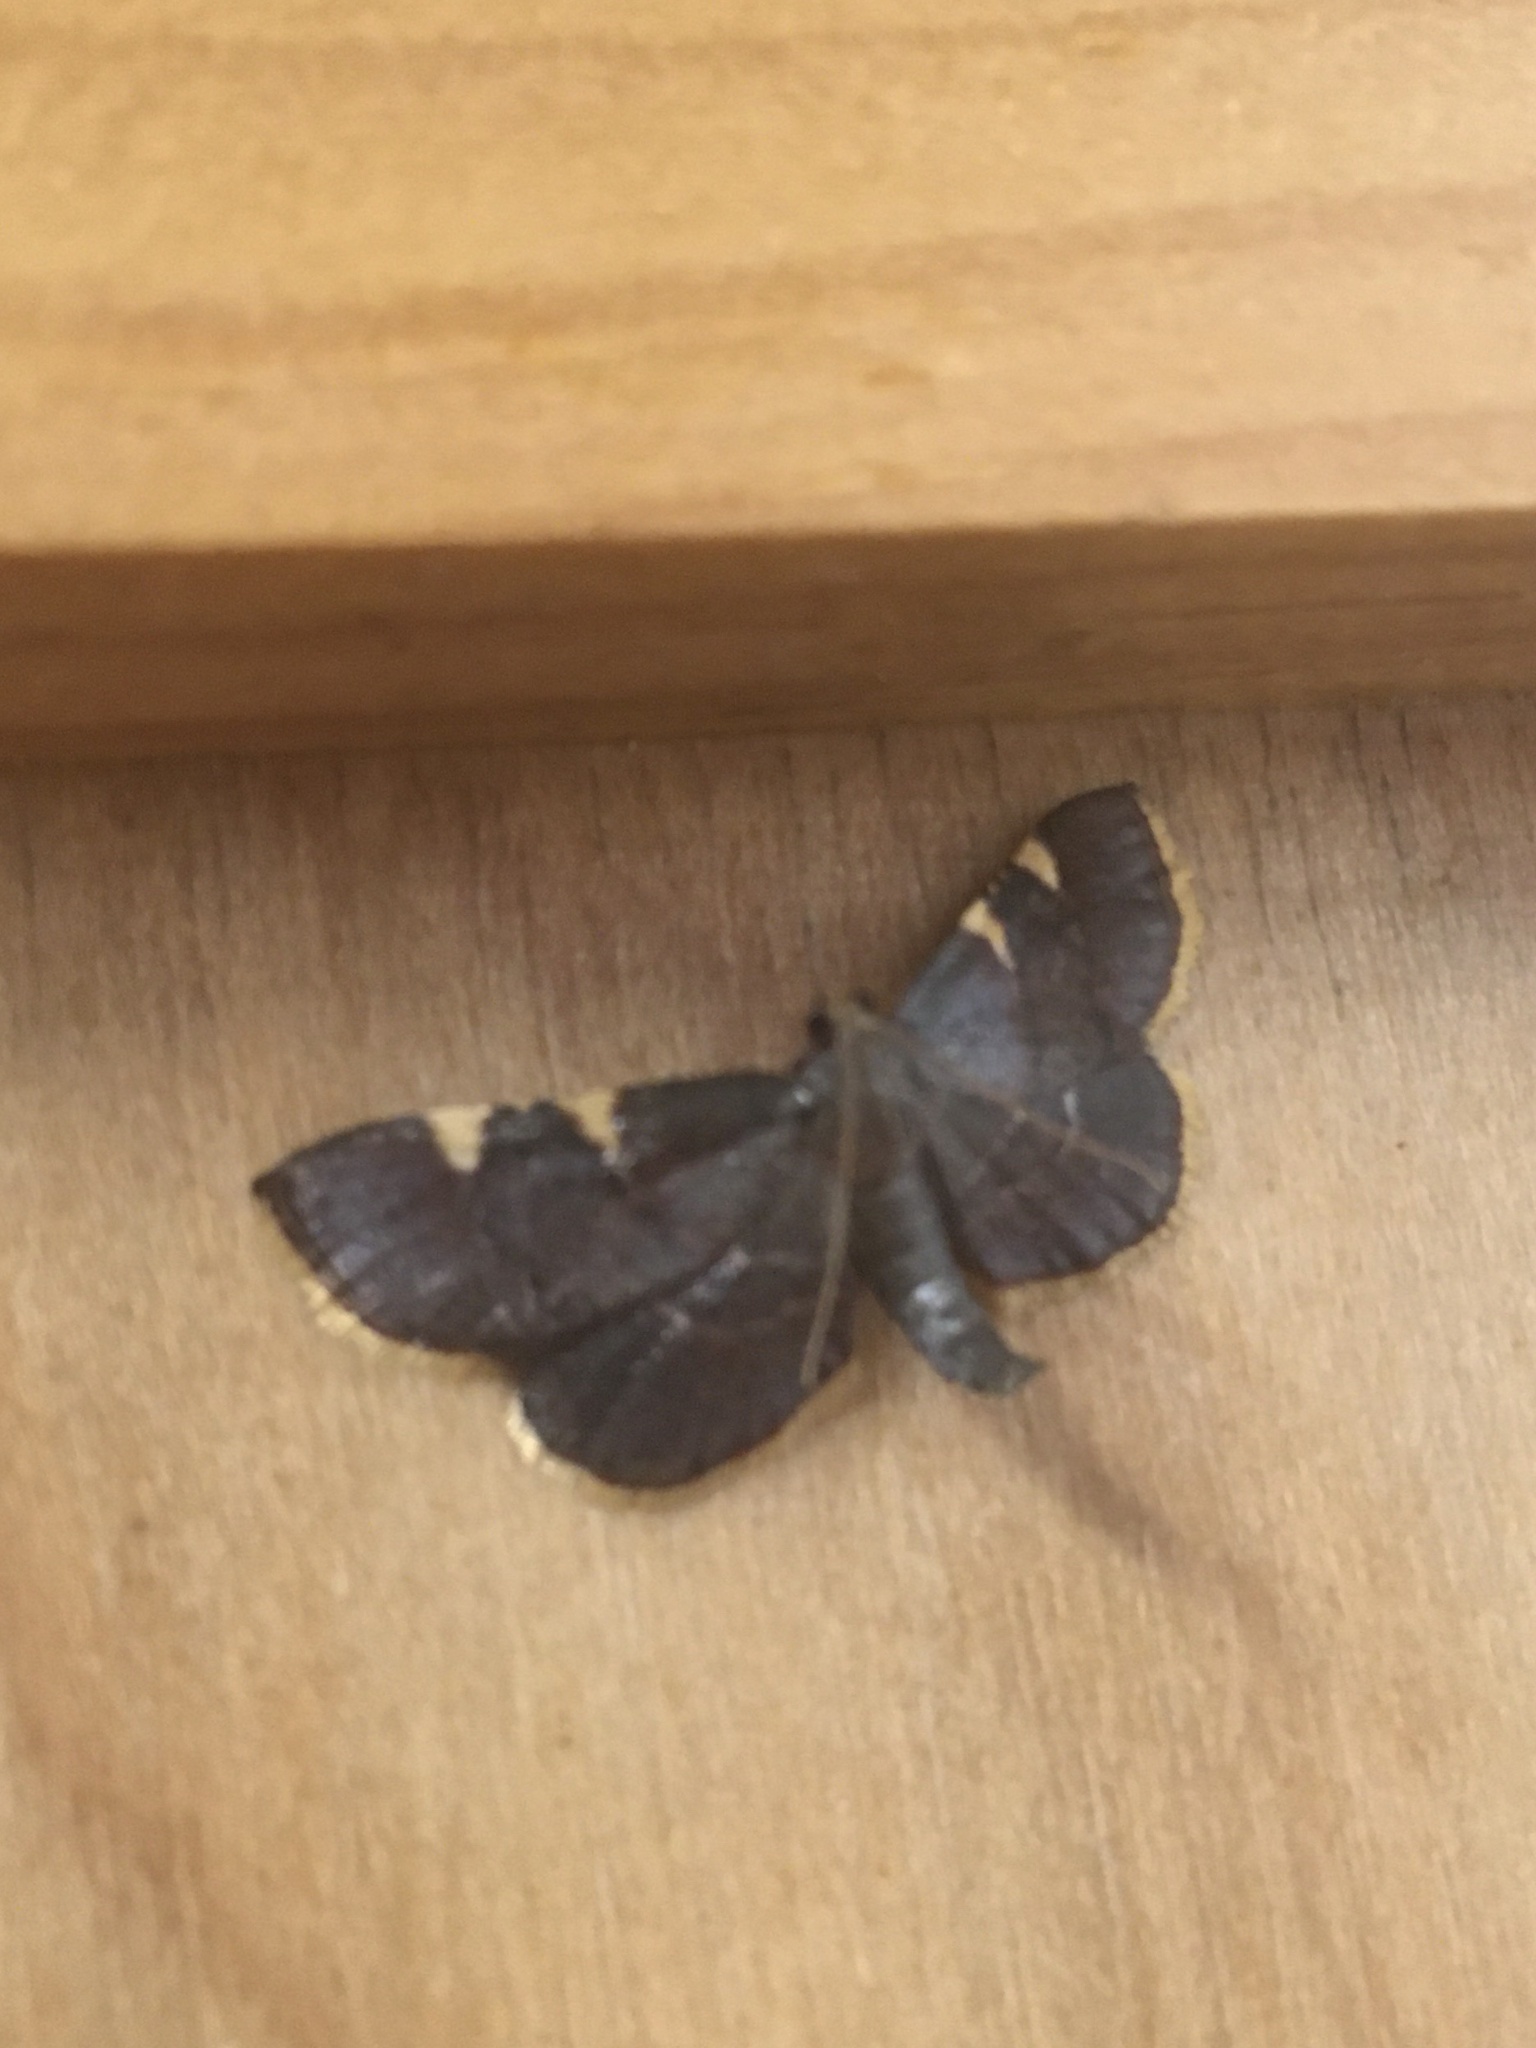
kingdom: Animalia
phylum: Arthropoda
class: Insecta
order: Lepidoptera
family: Pyralidae
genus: Hypsopygia
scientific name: Hypsopygia olinalis
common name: Yellow-fringed dolichomia moth
